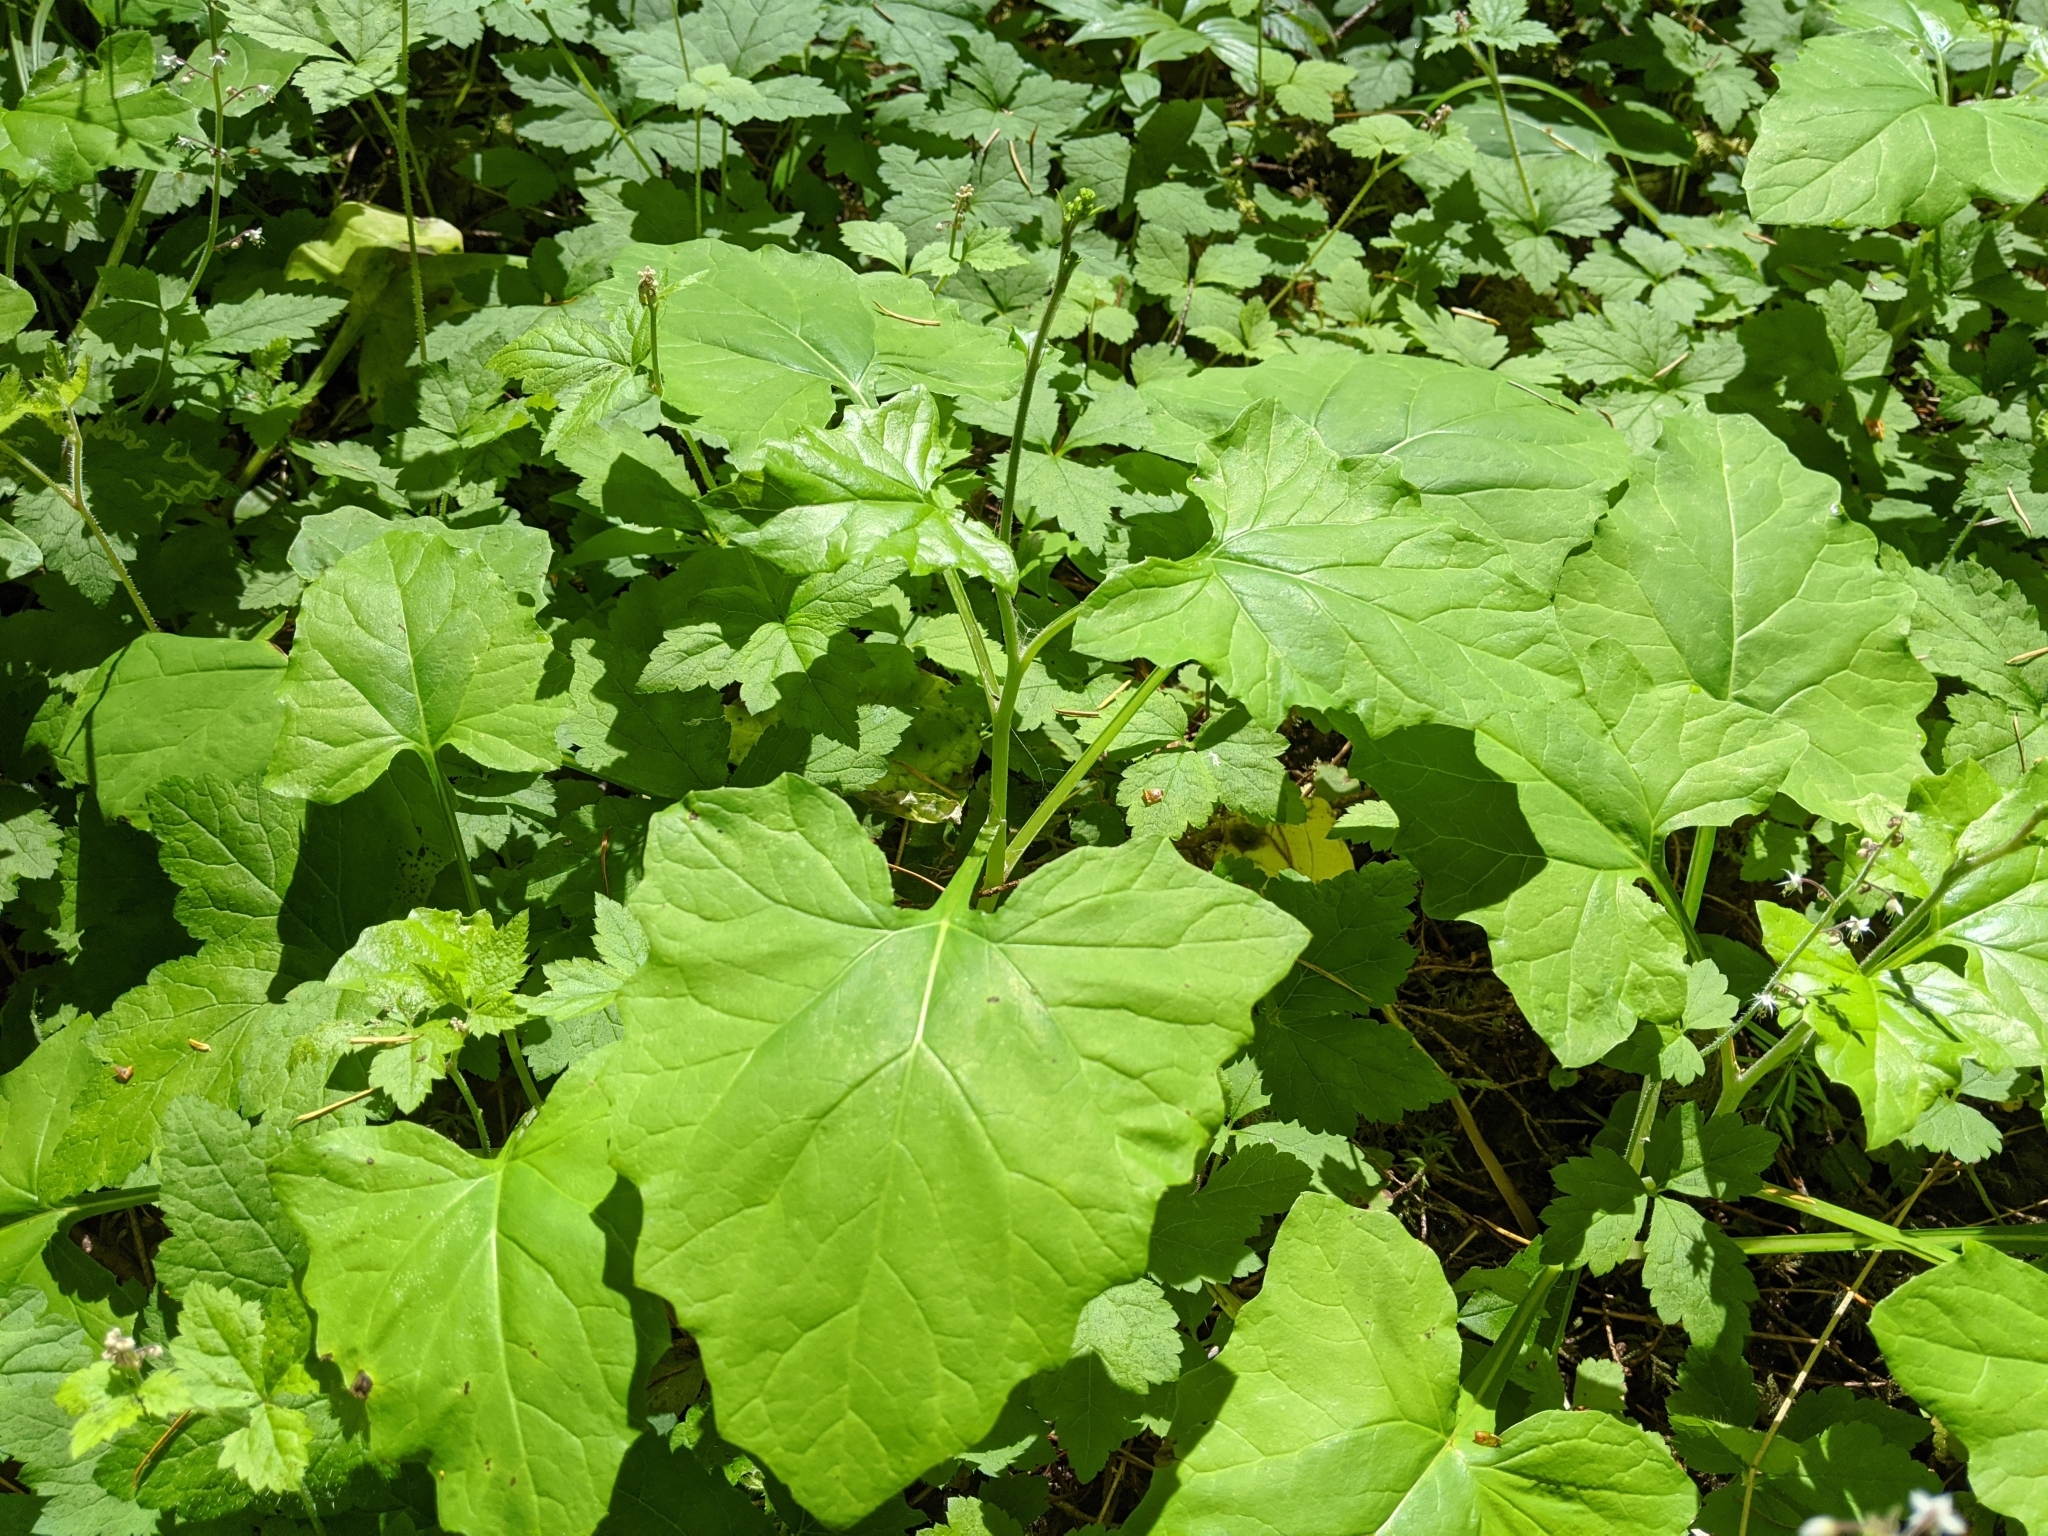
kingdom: Plantae
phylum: Tracheophyta
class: Magnoliopsida
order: Asterales
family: Asteraceae
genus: Adenocaulon
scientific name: Adenocaulon bicolor
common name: Trailplant
